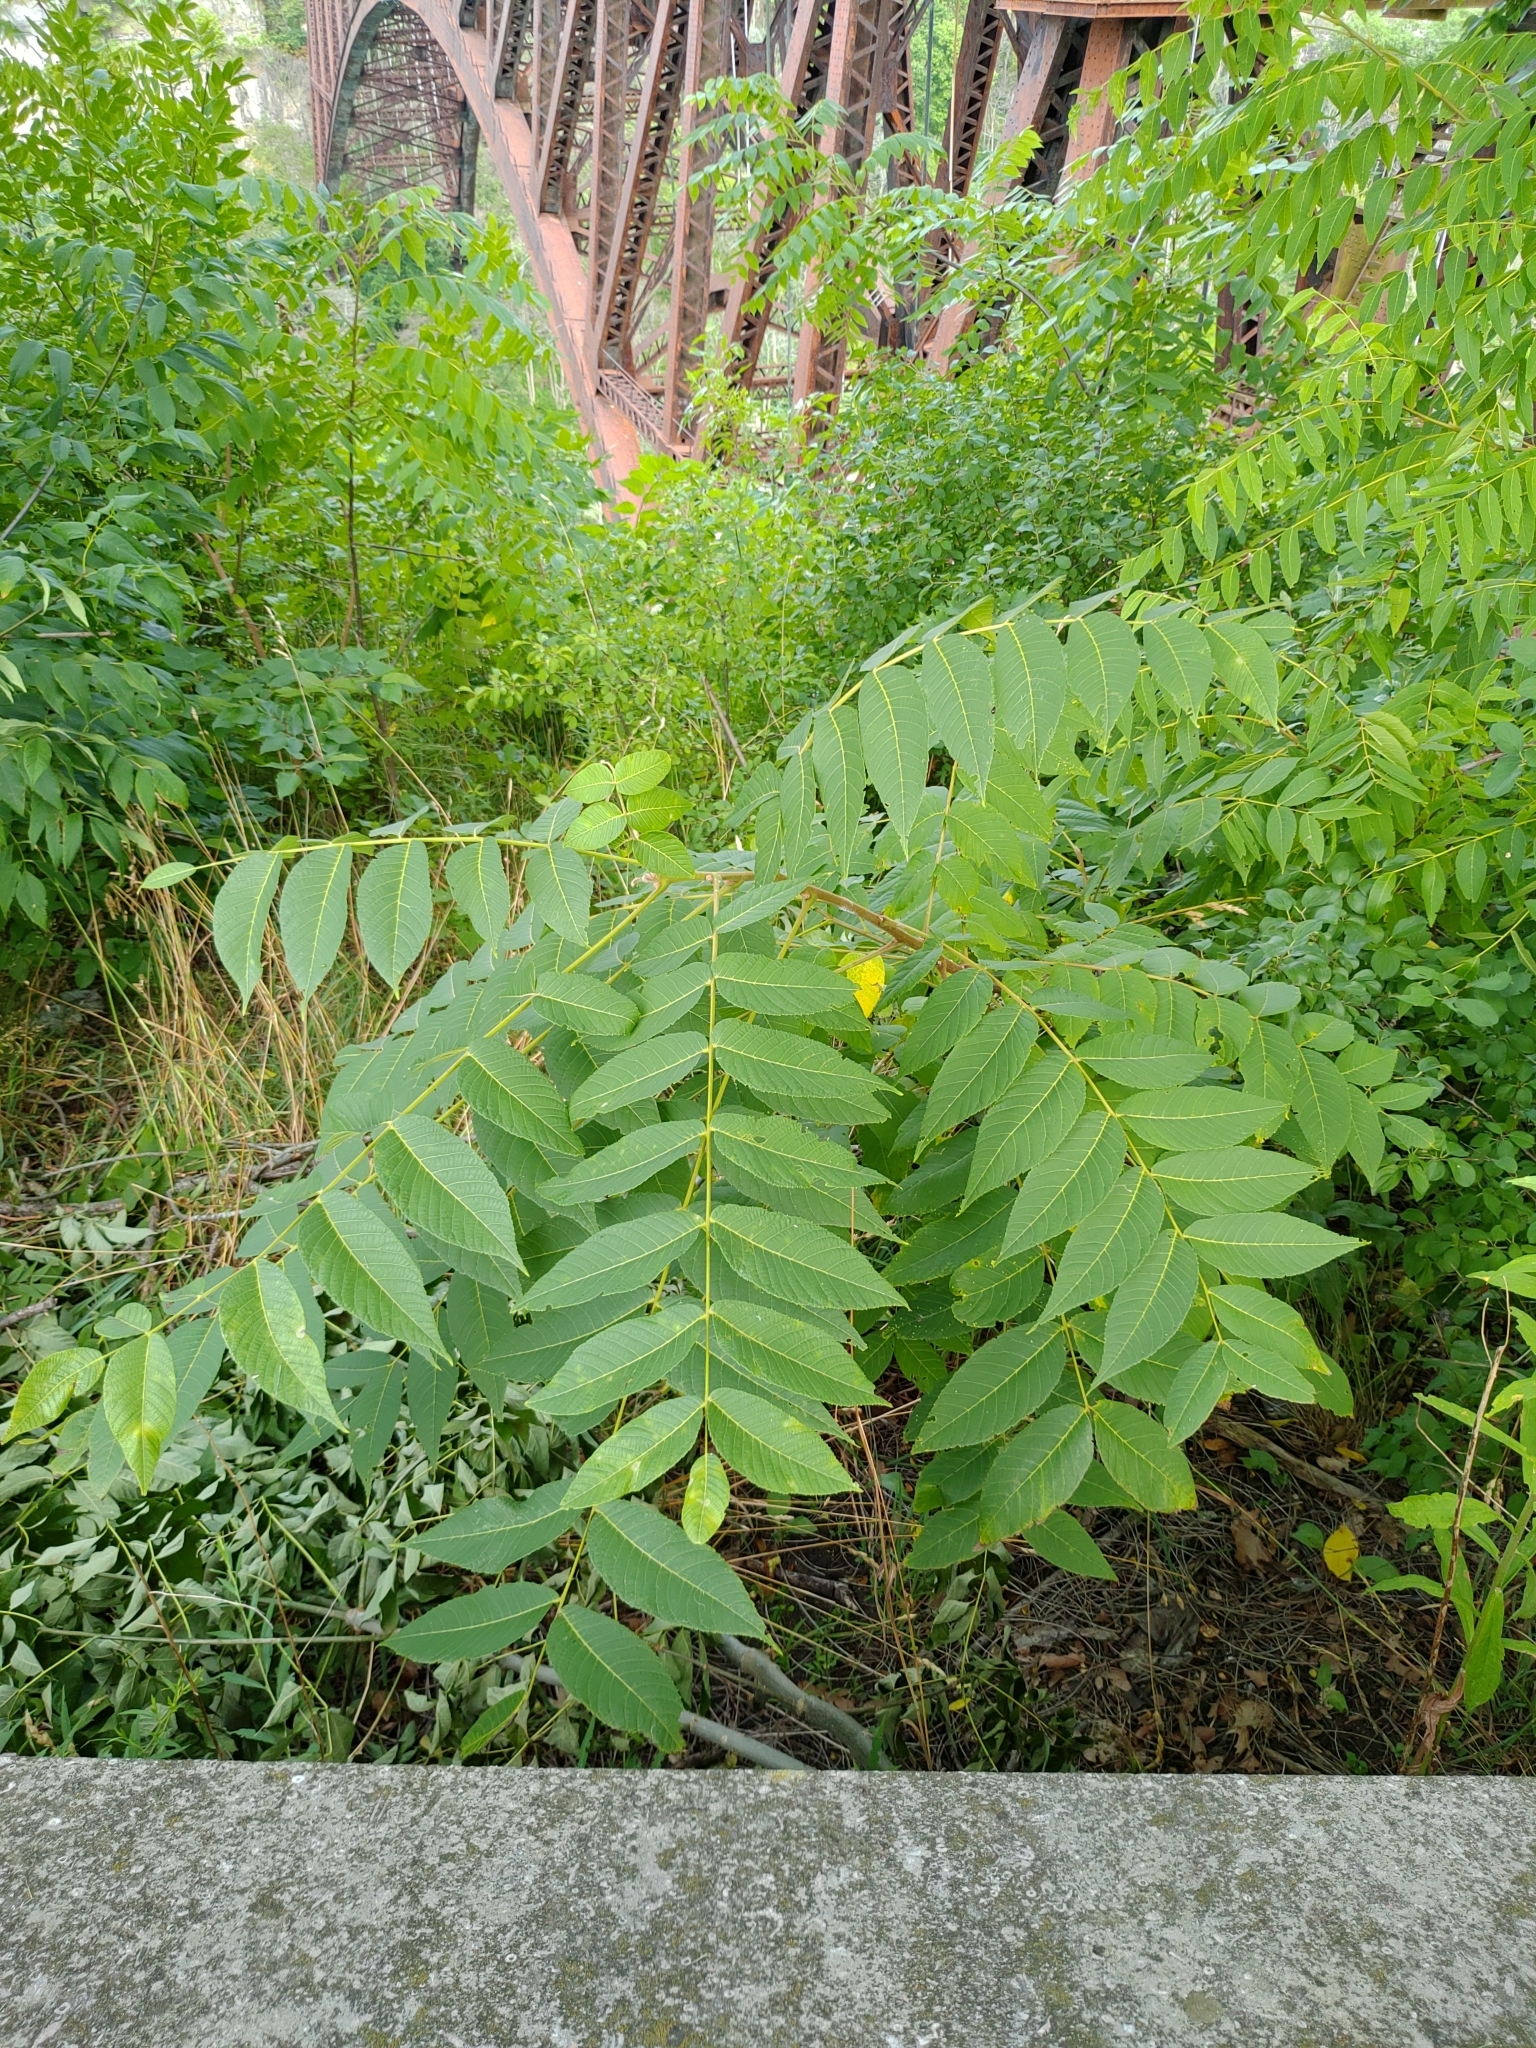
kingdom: Plantae
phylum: Tracheophyta
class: Magnoliopsida
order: Fagales
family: Juglandaceae
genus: Juglans
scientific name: Juglans nigra
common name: Black walnut
